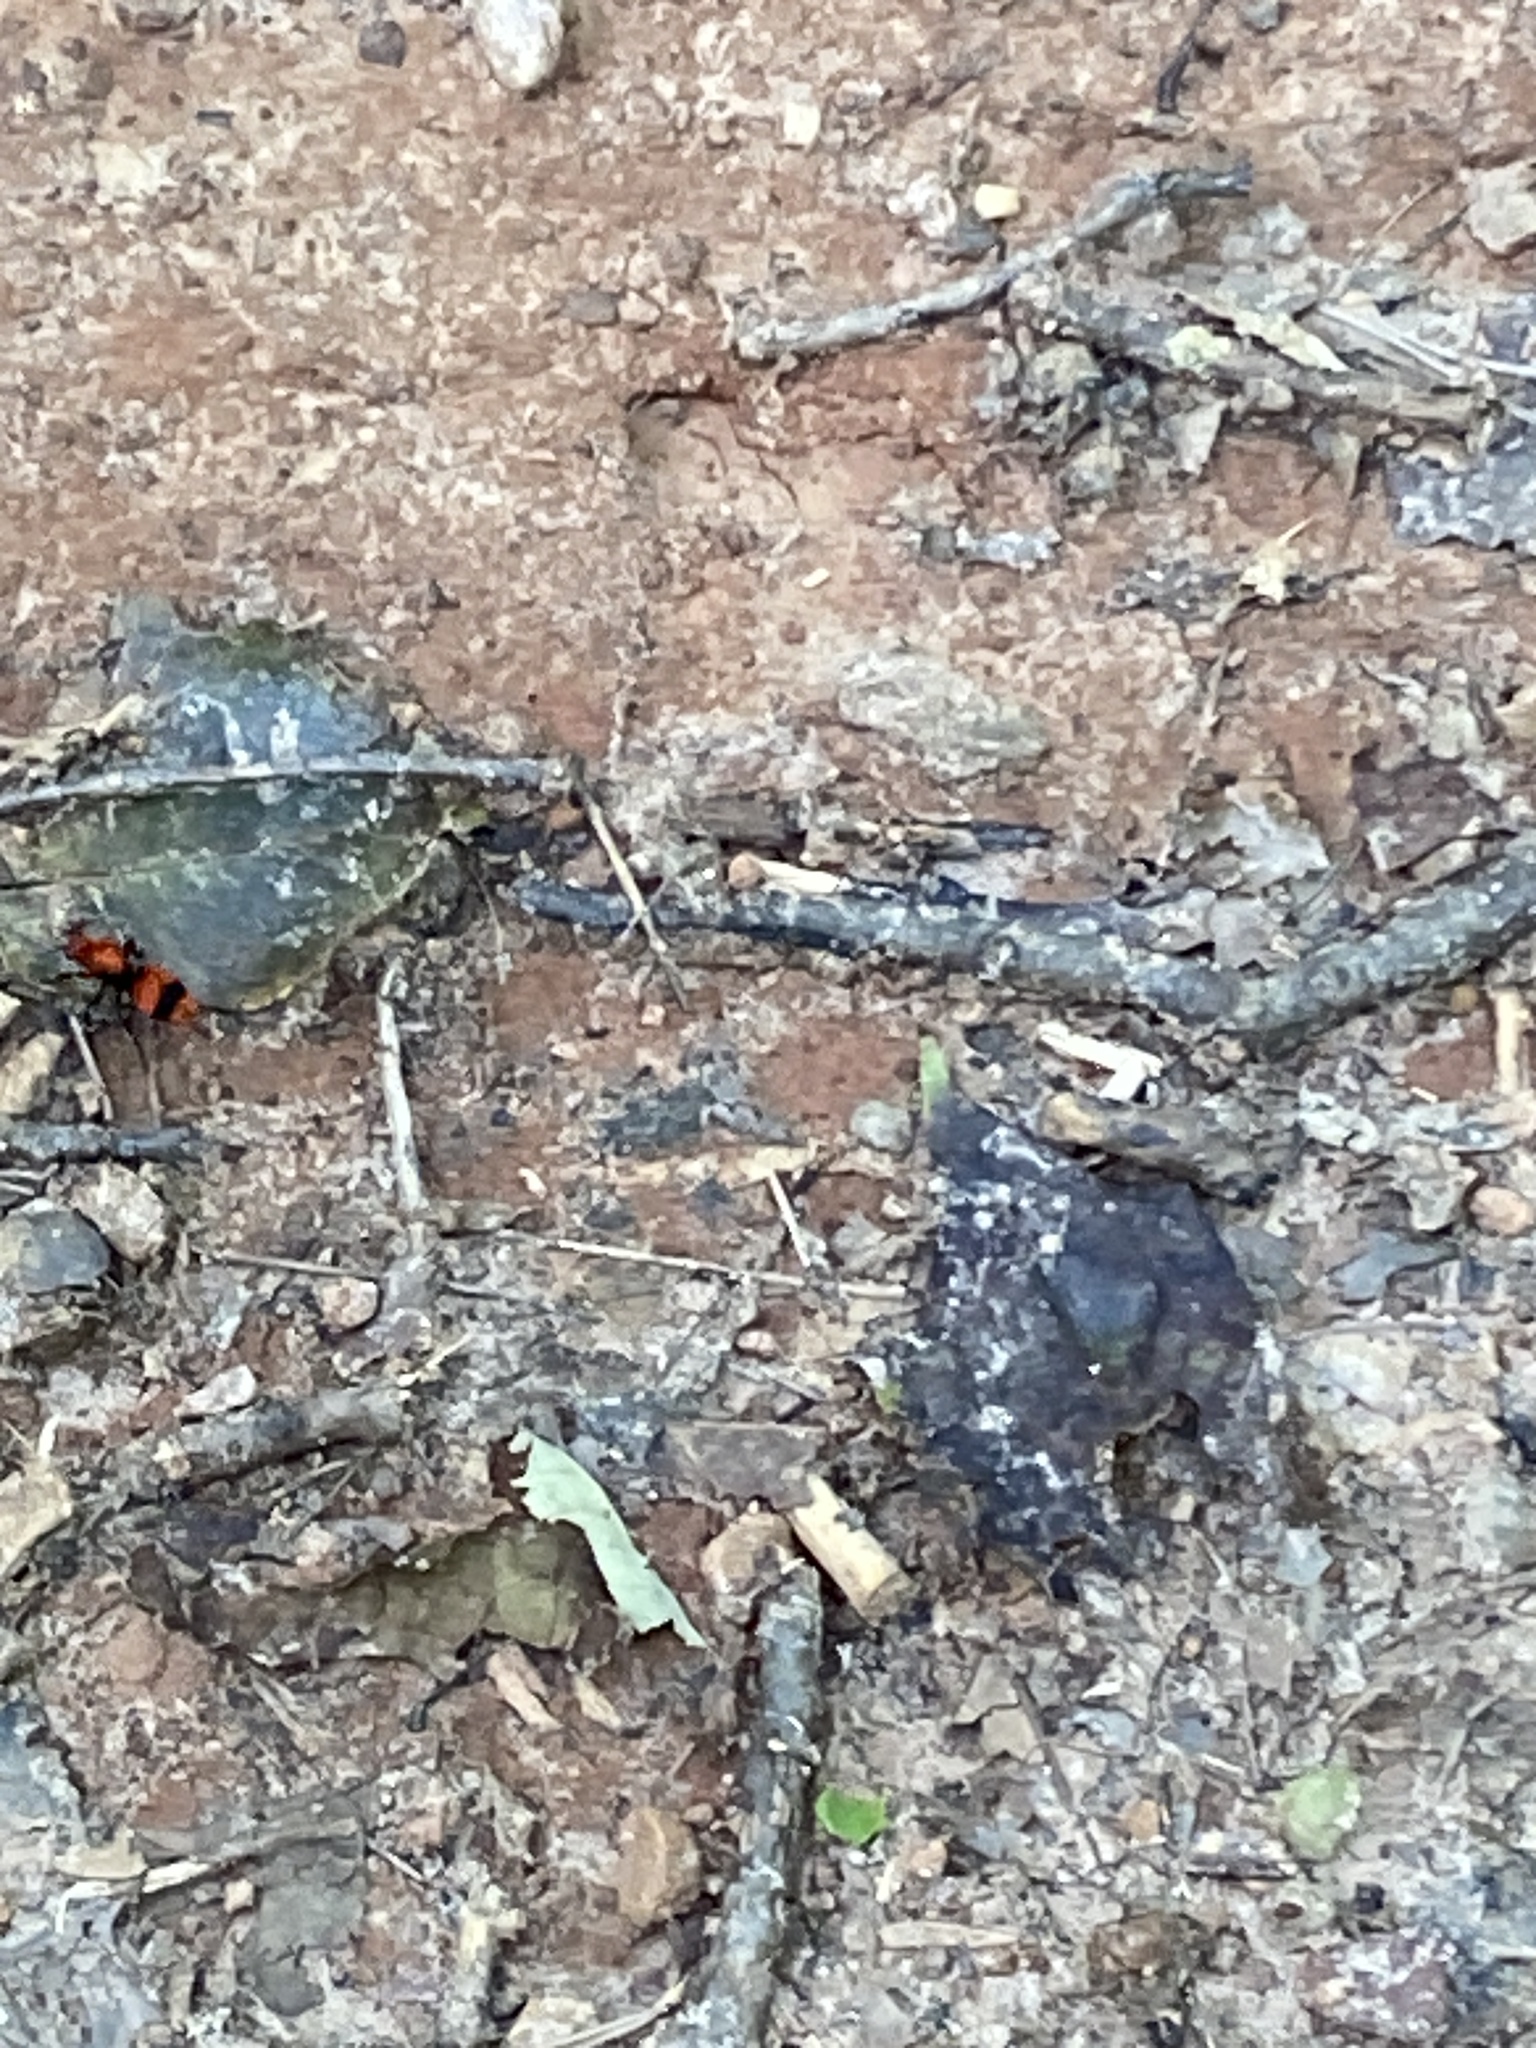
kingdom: Animalia
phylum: Arthropoda
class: Insecta
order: Hymenoptera
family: Mutillidae
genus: Dasymutilla
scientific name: Dasymutilla occidentalis
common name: Common eastern velvet ant
